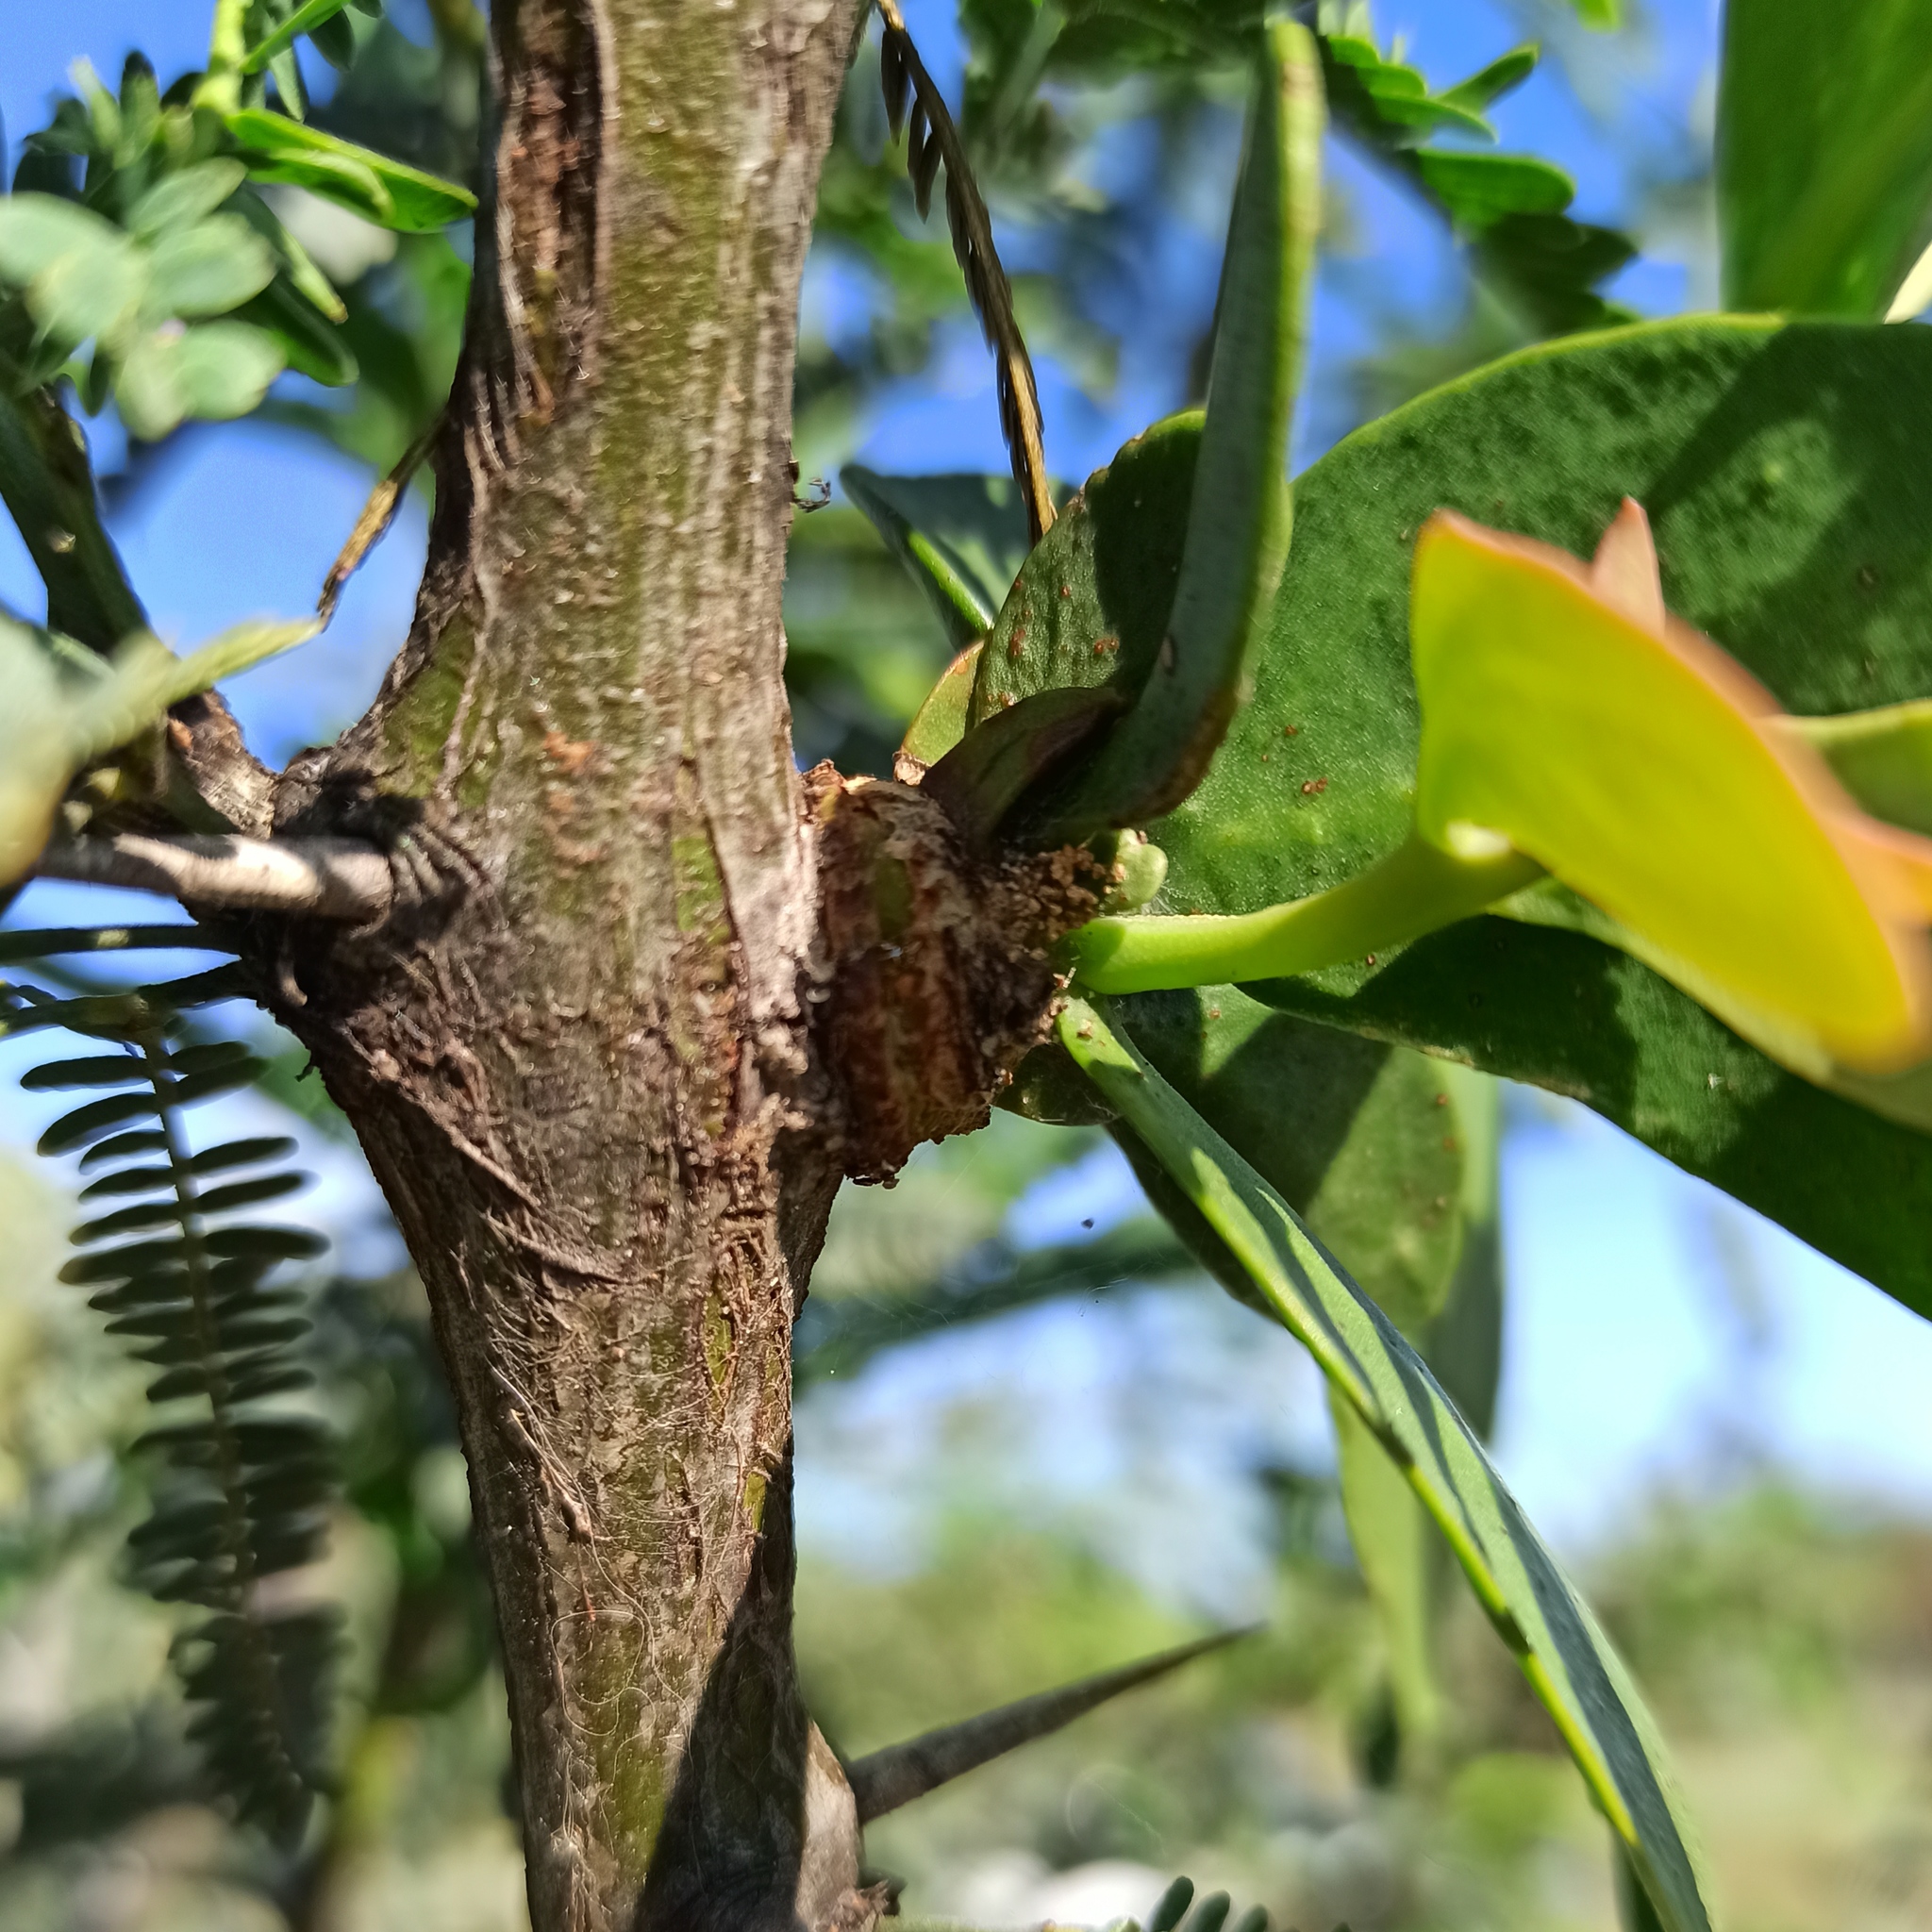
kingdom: Plantae
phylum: Tracheophyta
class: Magnoliopsida
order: Santalales
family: Loranthaceae
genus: Psittacanthus
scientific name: Psittacanthus calyculatus
